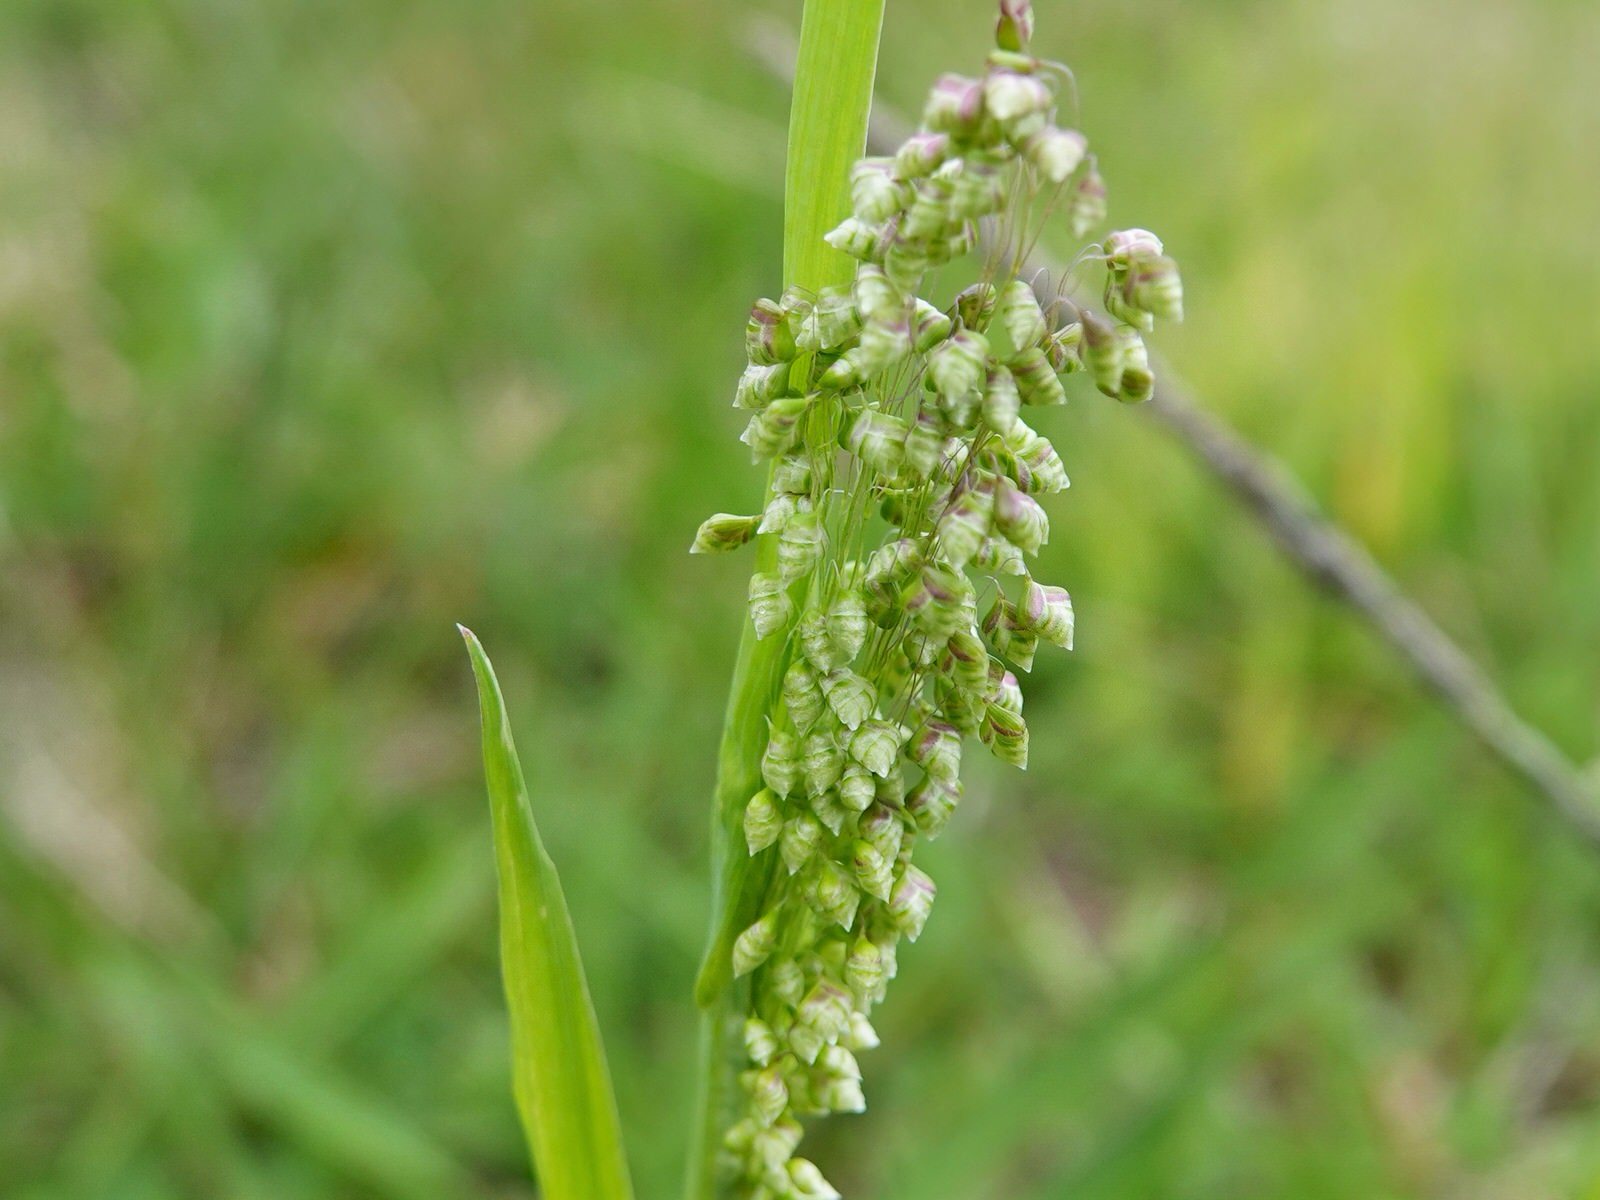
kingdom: Plantae
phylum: Tracheophyta
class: Liliopsida
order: Poales
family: Poaceae
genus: Briza
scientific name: Briza minor
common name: Lesser quaking-grass
